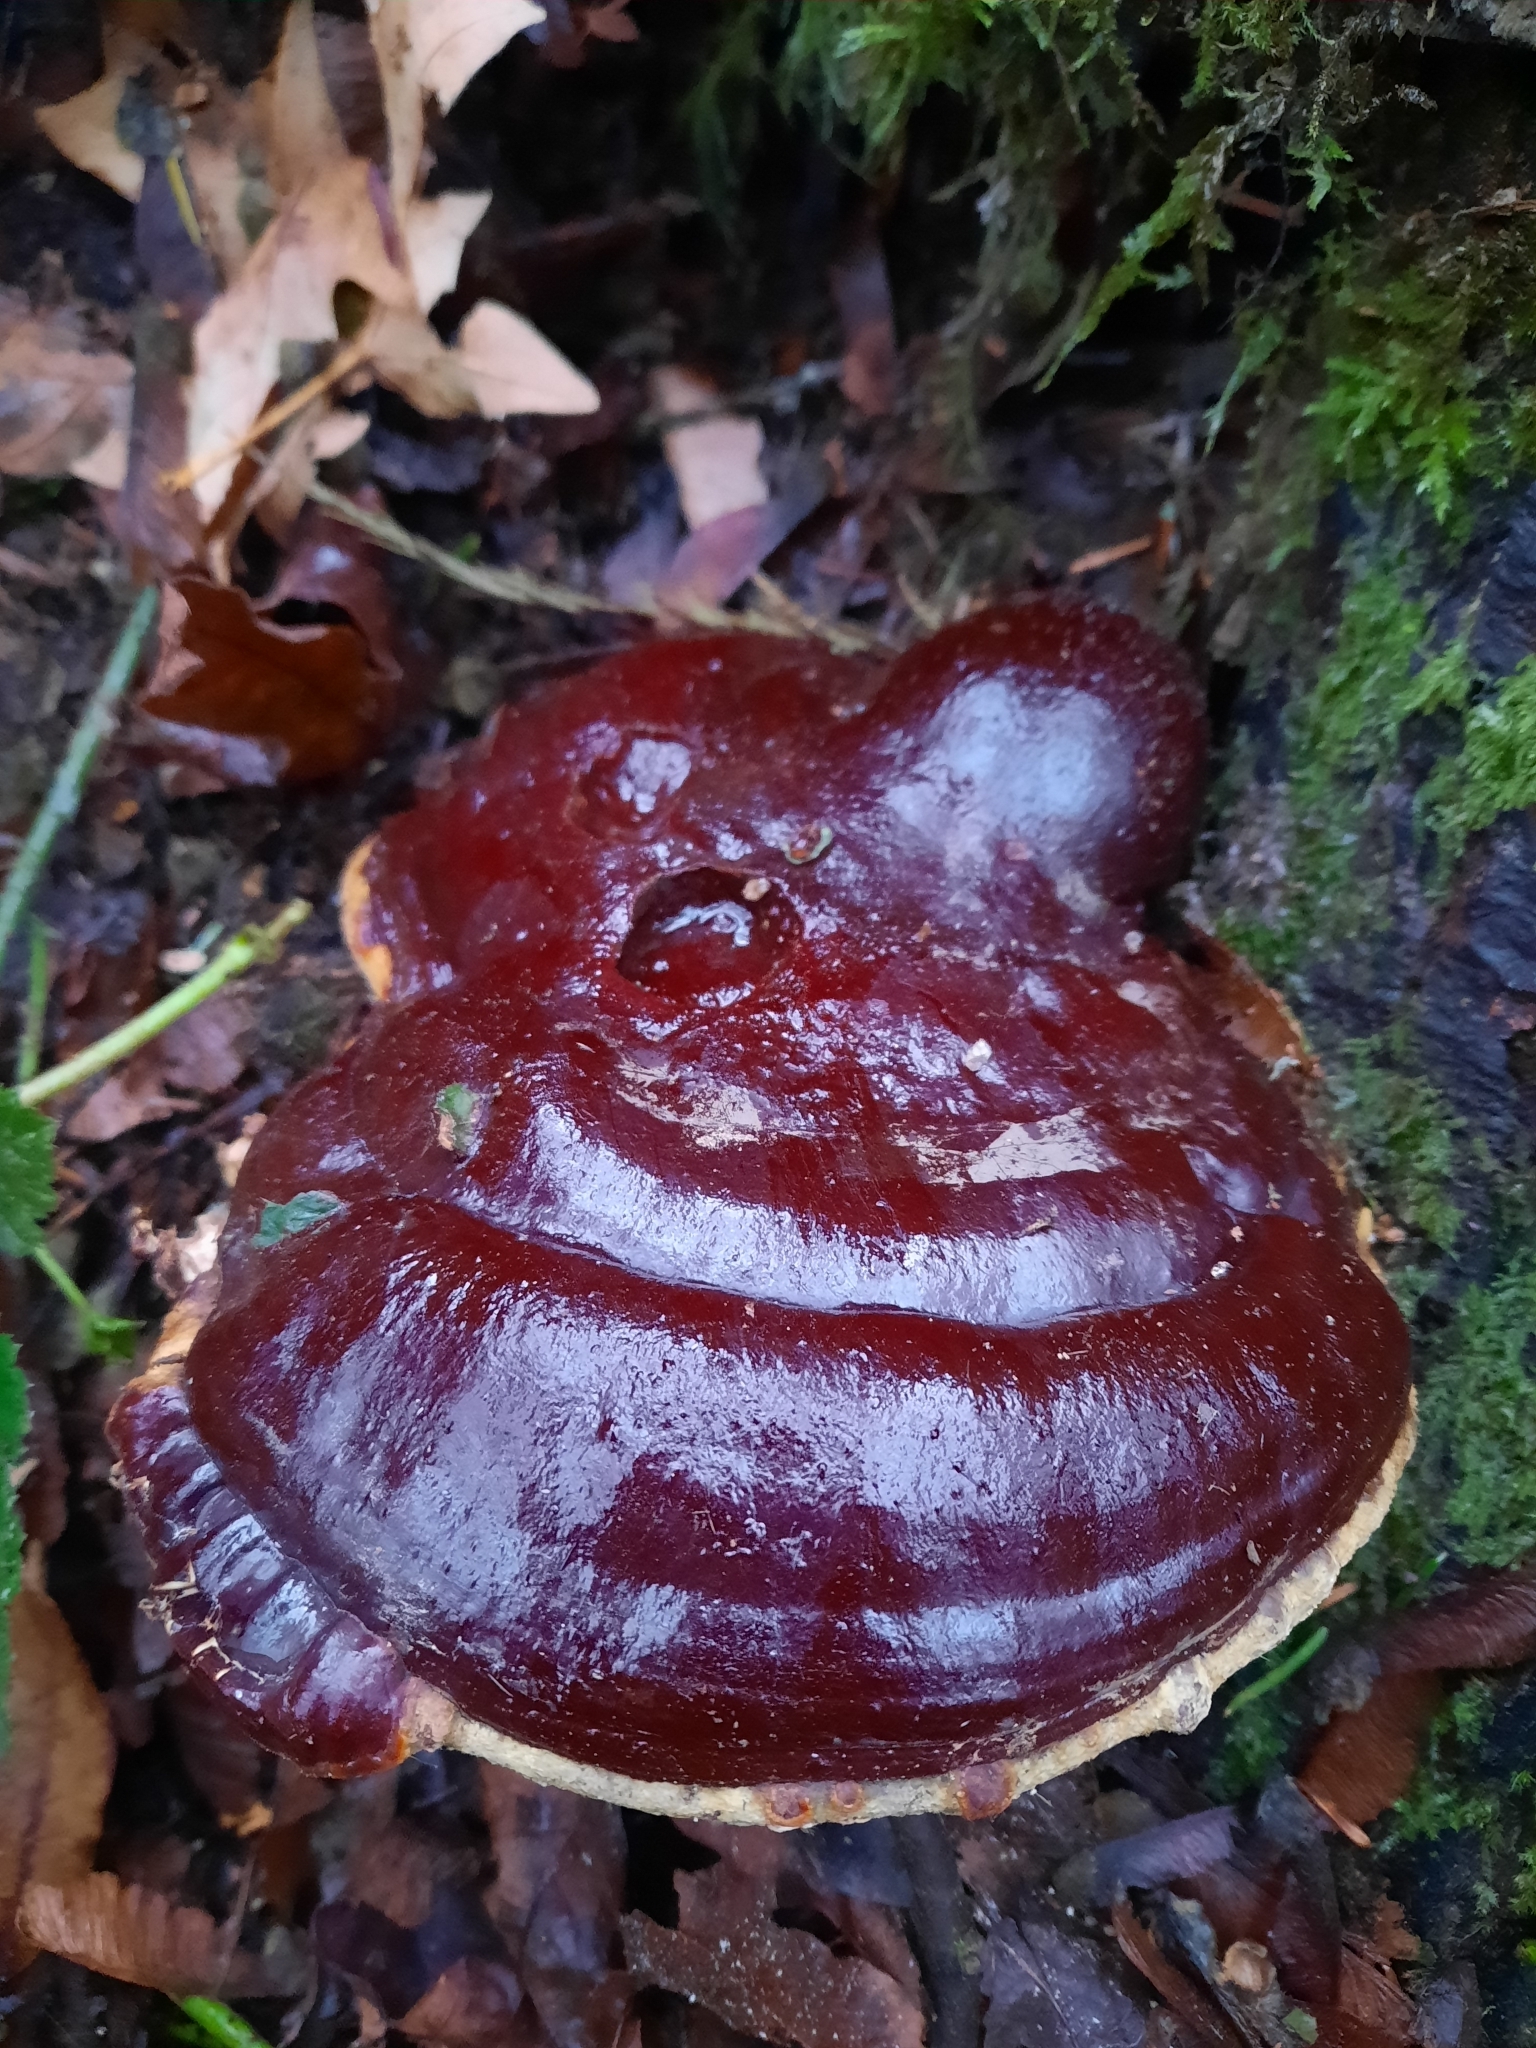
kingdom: Fungi
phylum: Basidiomycota
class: Agaricomycetes
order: Polyporales
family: Polyporaceae
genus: Ganoderma
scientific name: Ganoderma oregonense
